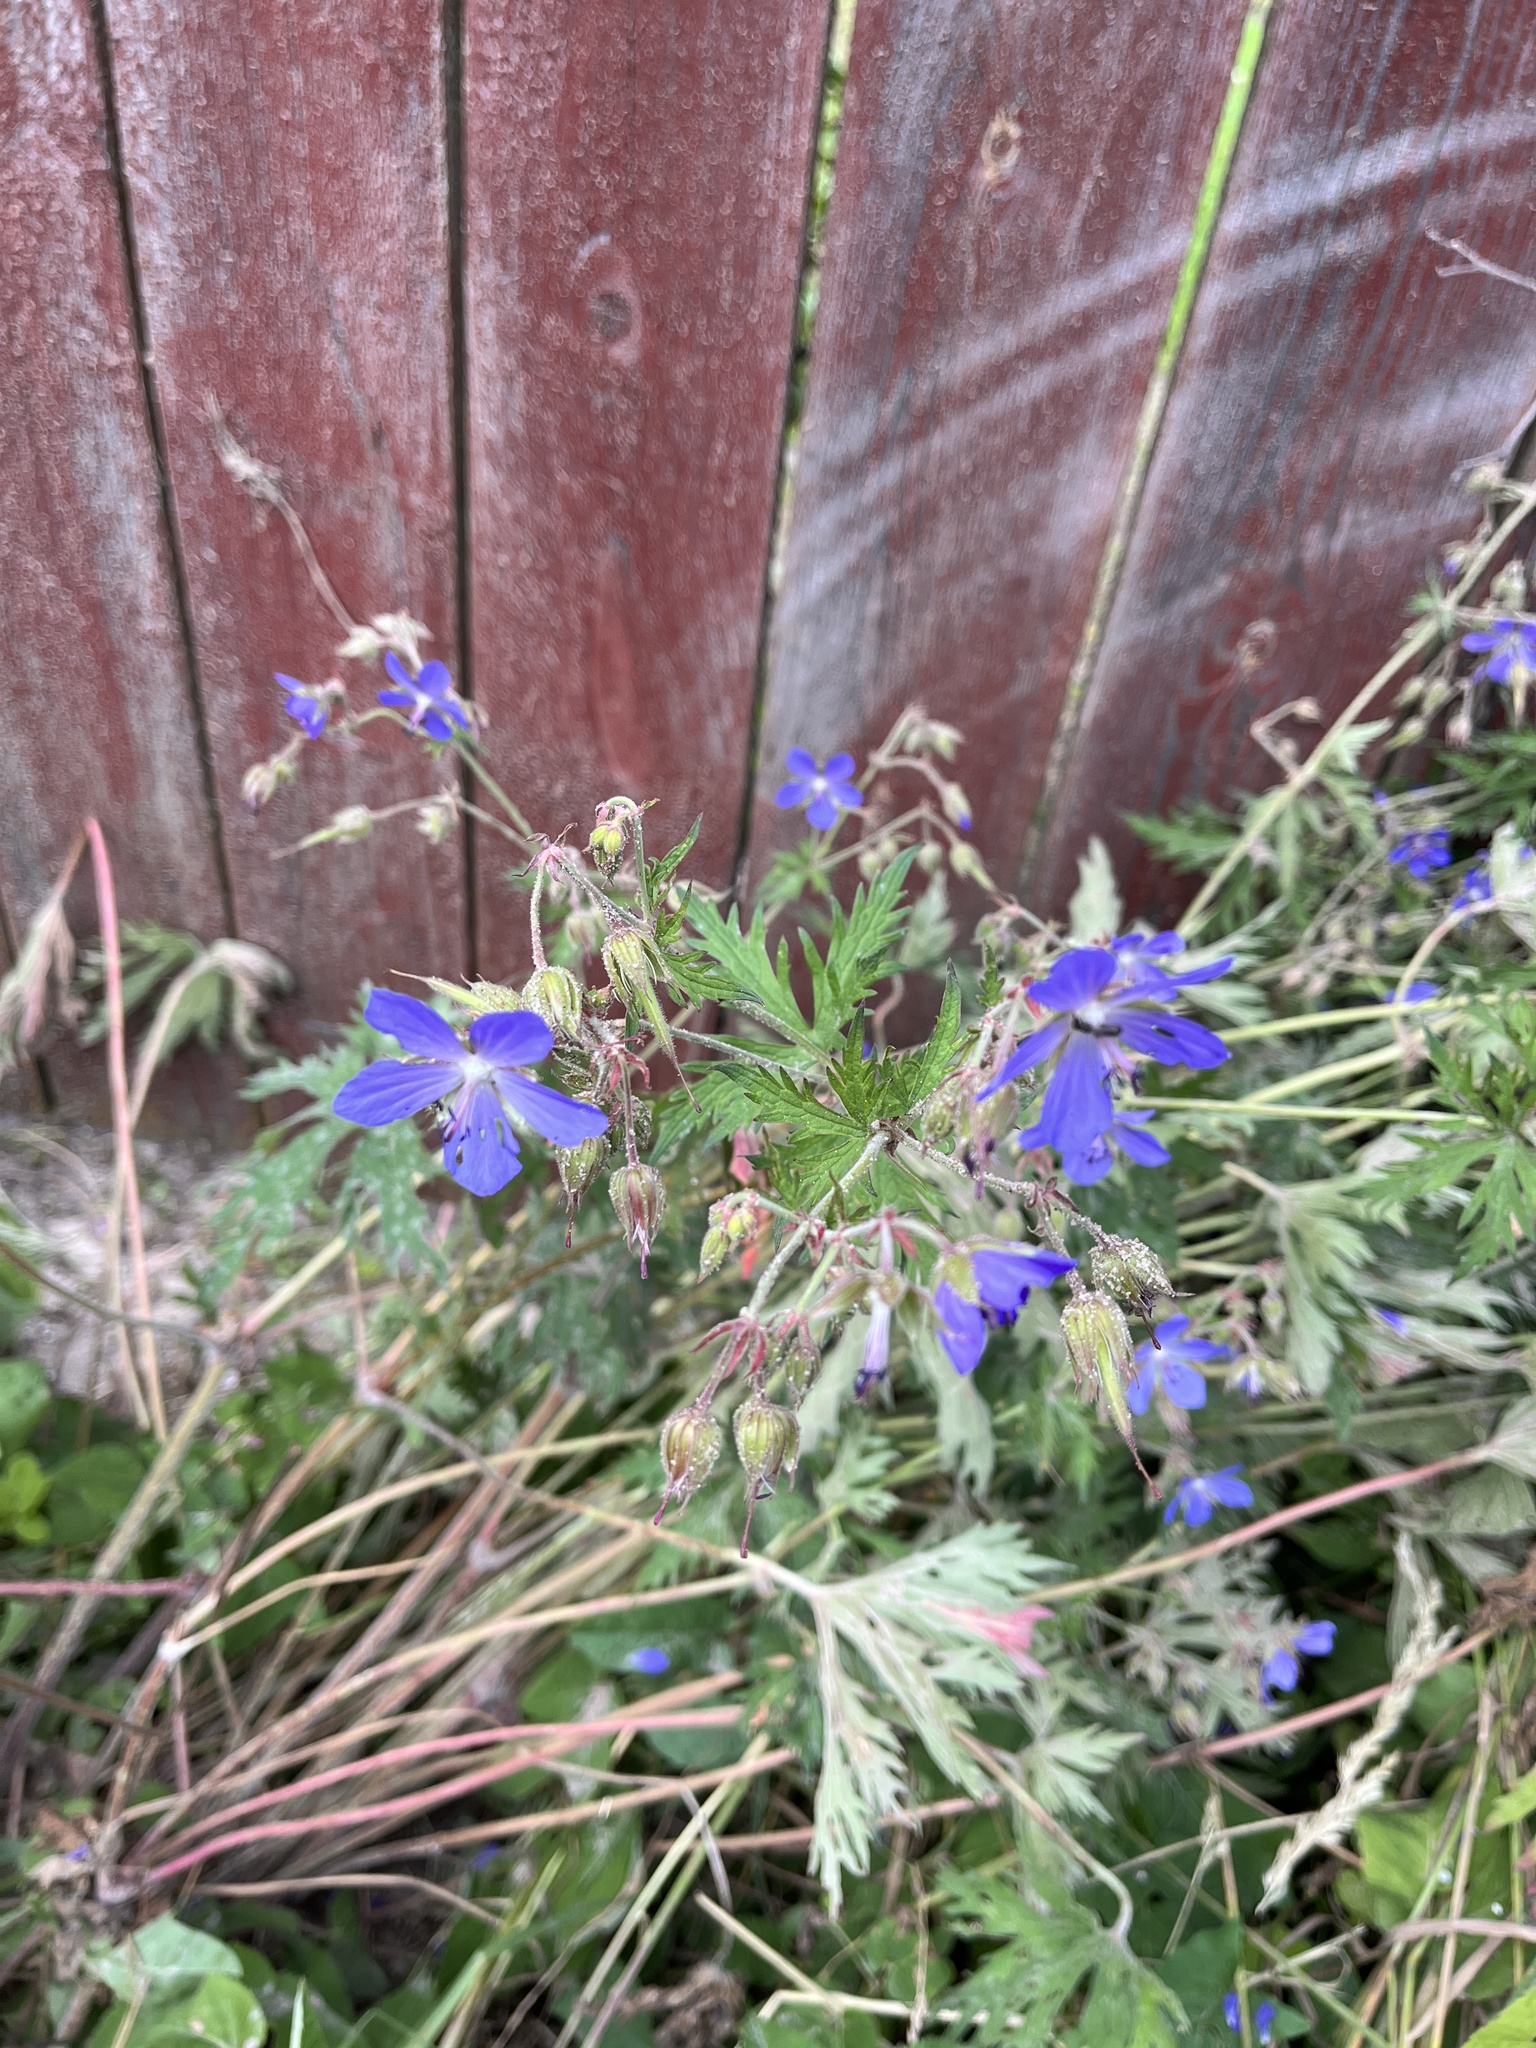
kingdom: Plantae
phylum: Tracheophyta
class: Magnoliopsida
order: Geraniales
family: Geraniaceae
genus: Geranium
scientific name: Geranium pratense
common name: Meadow crane's-bill
